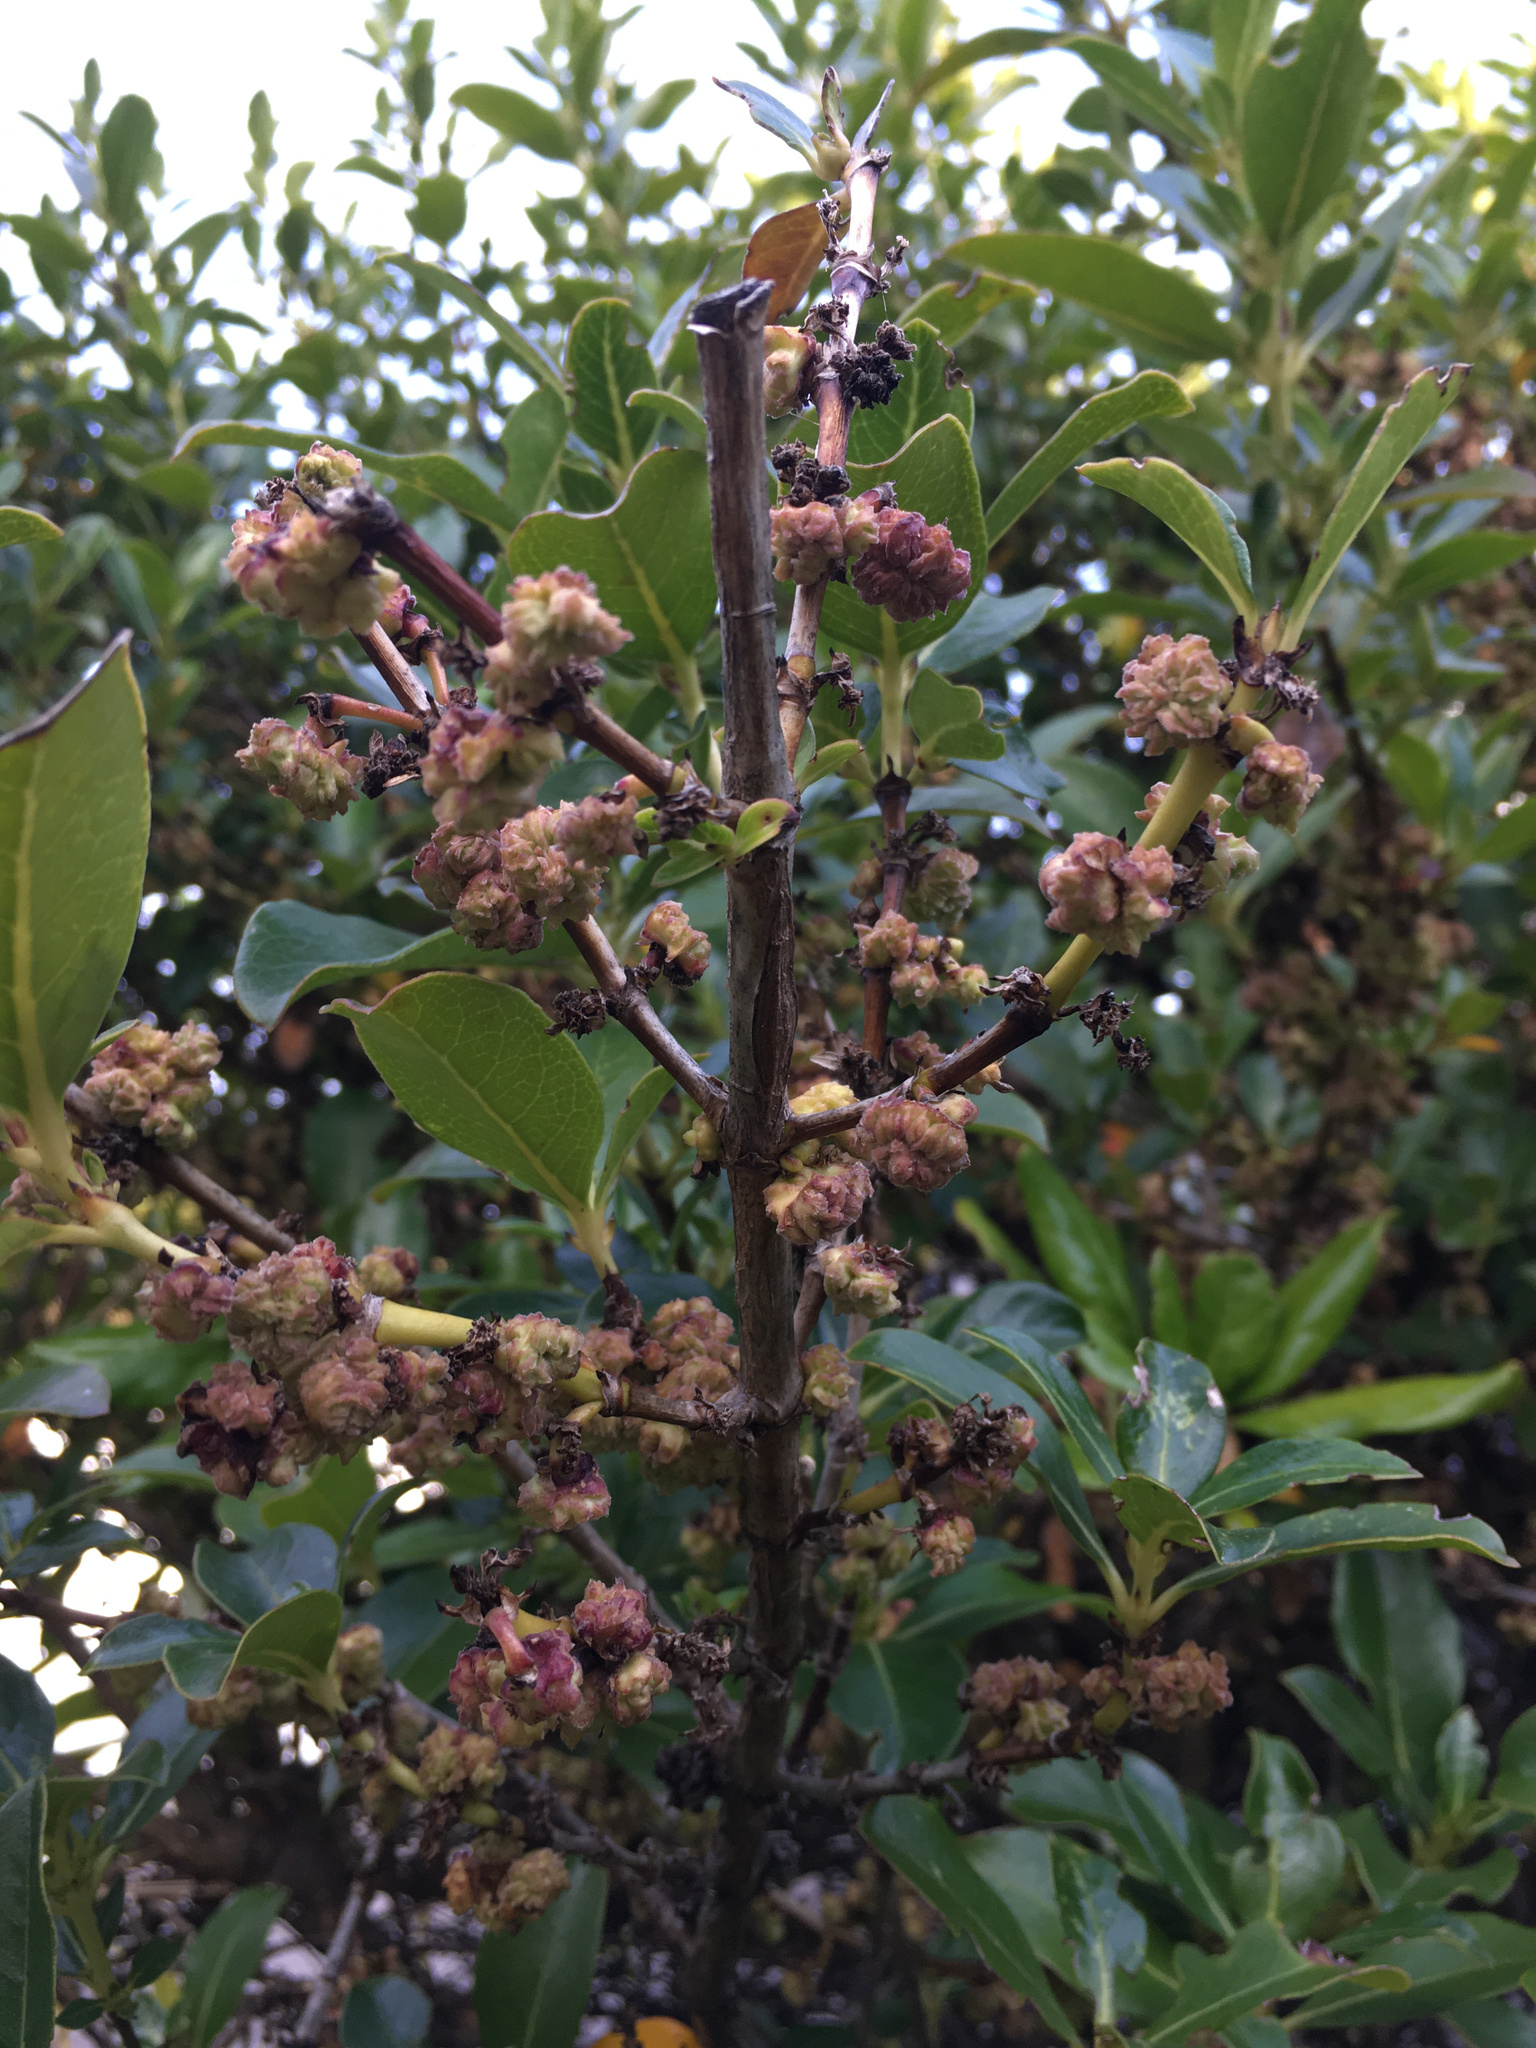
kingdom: Animalia
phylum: Arthropoda
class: Arachnida
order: Trombidiformes
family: Eriophyidae
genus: Acalitus
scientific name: Acalitus
